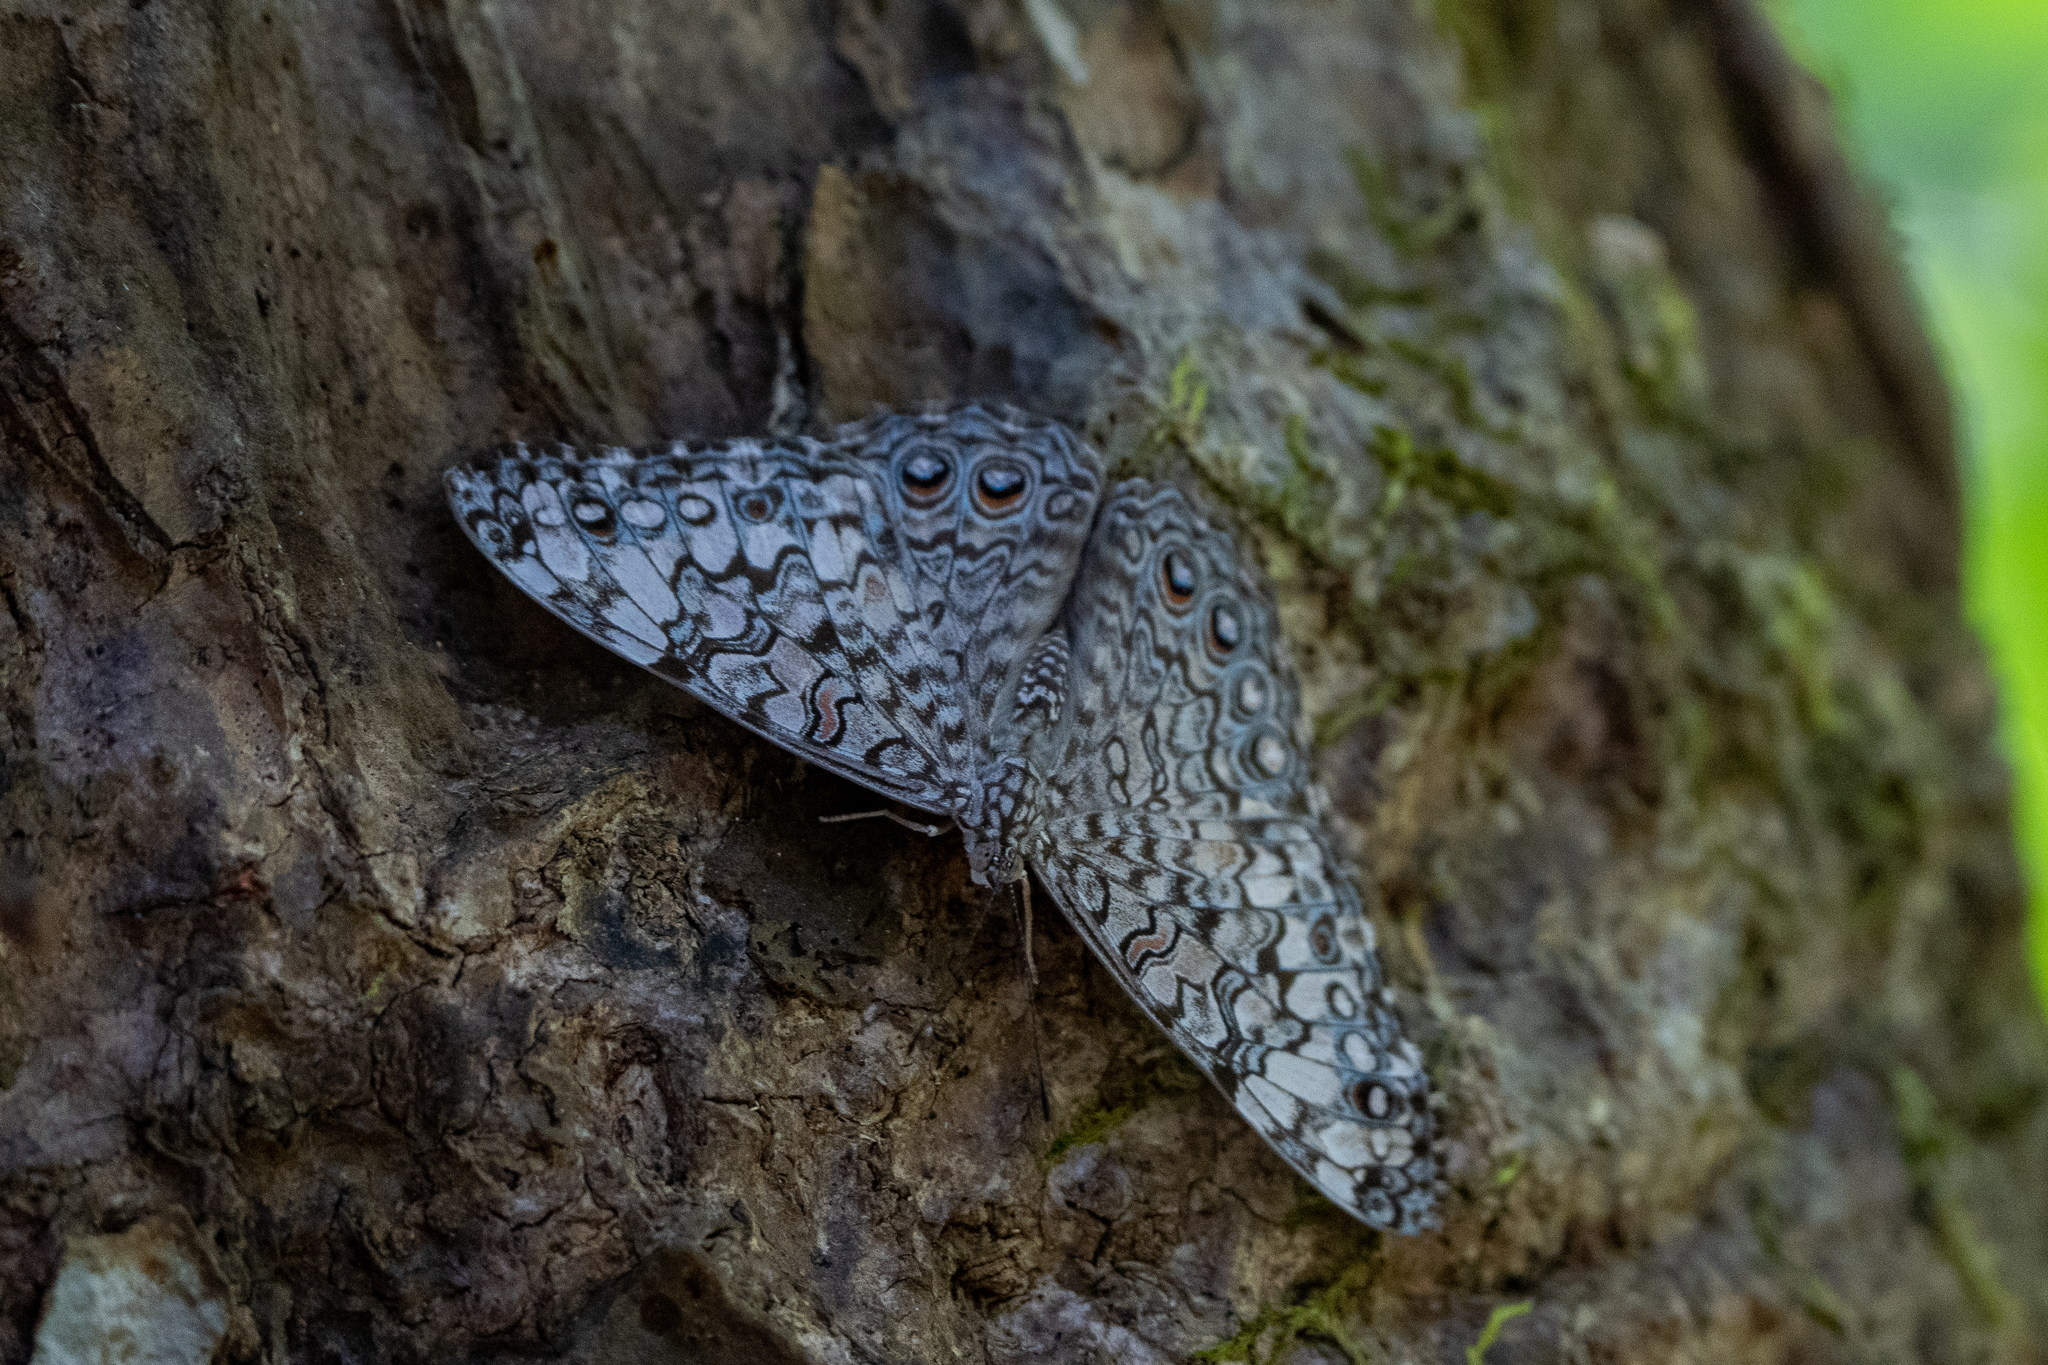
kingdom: Animalia
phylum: Arthropoda
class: Insecta
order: Lepidoptera
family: Nymphalidae
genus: Hamadryas
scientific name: Hamadryas feronia
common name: Variable cracker
